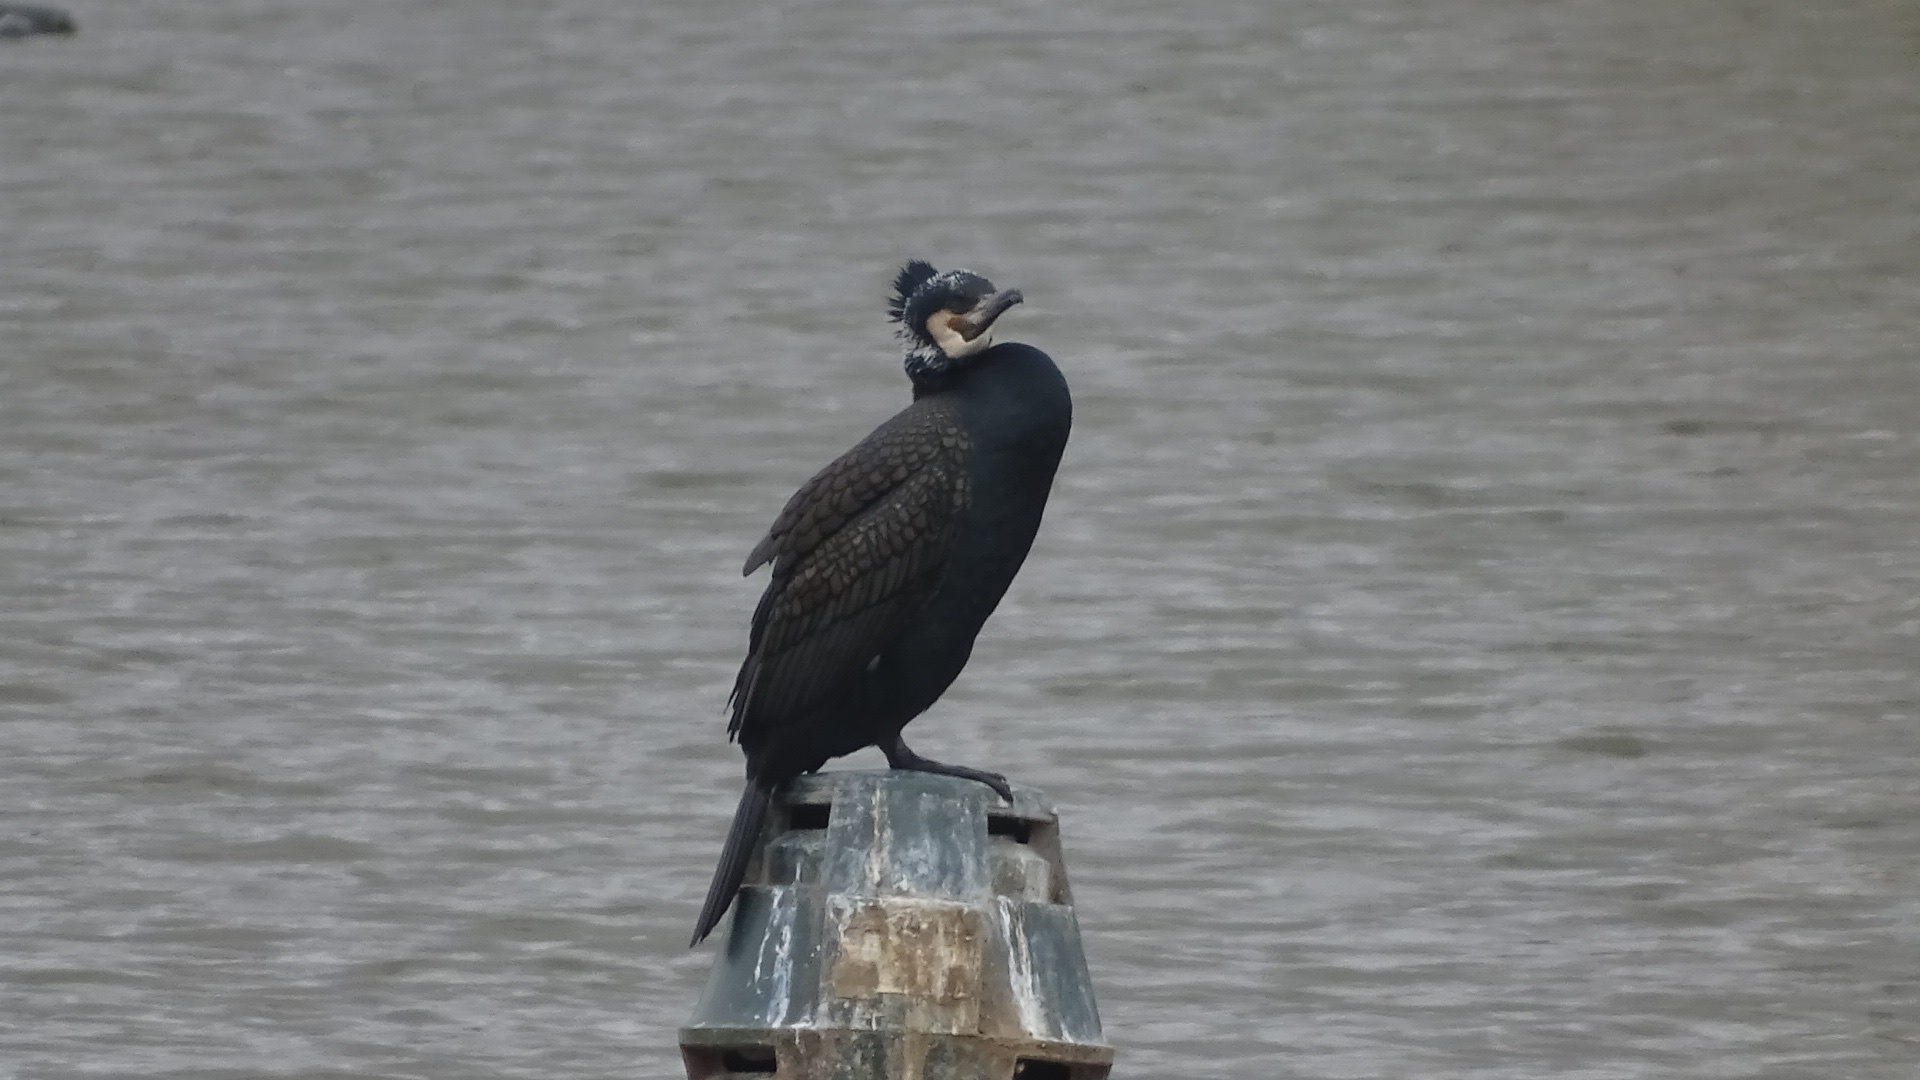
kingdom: Animalia
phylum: Chordata
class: Aves
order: Suliformes
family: Phalacrocoracidae
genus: Phalacrocorax
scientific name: Phalacrocorax carbo
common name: Great cormorant
